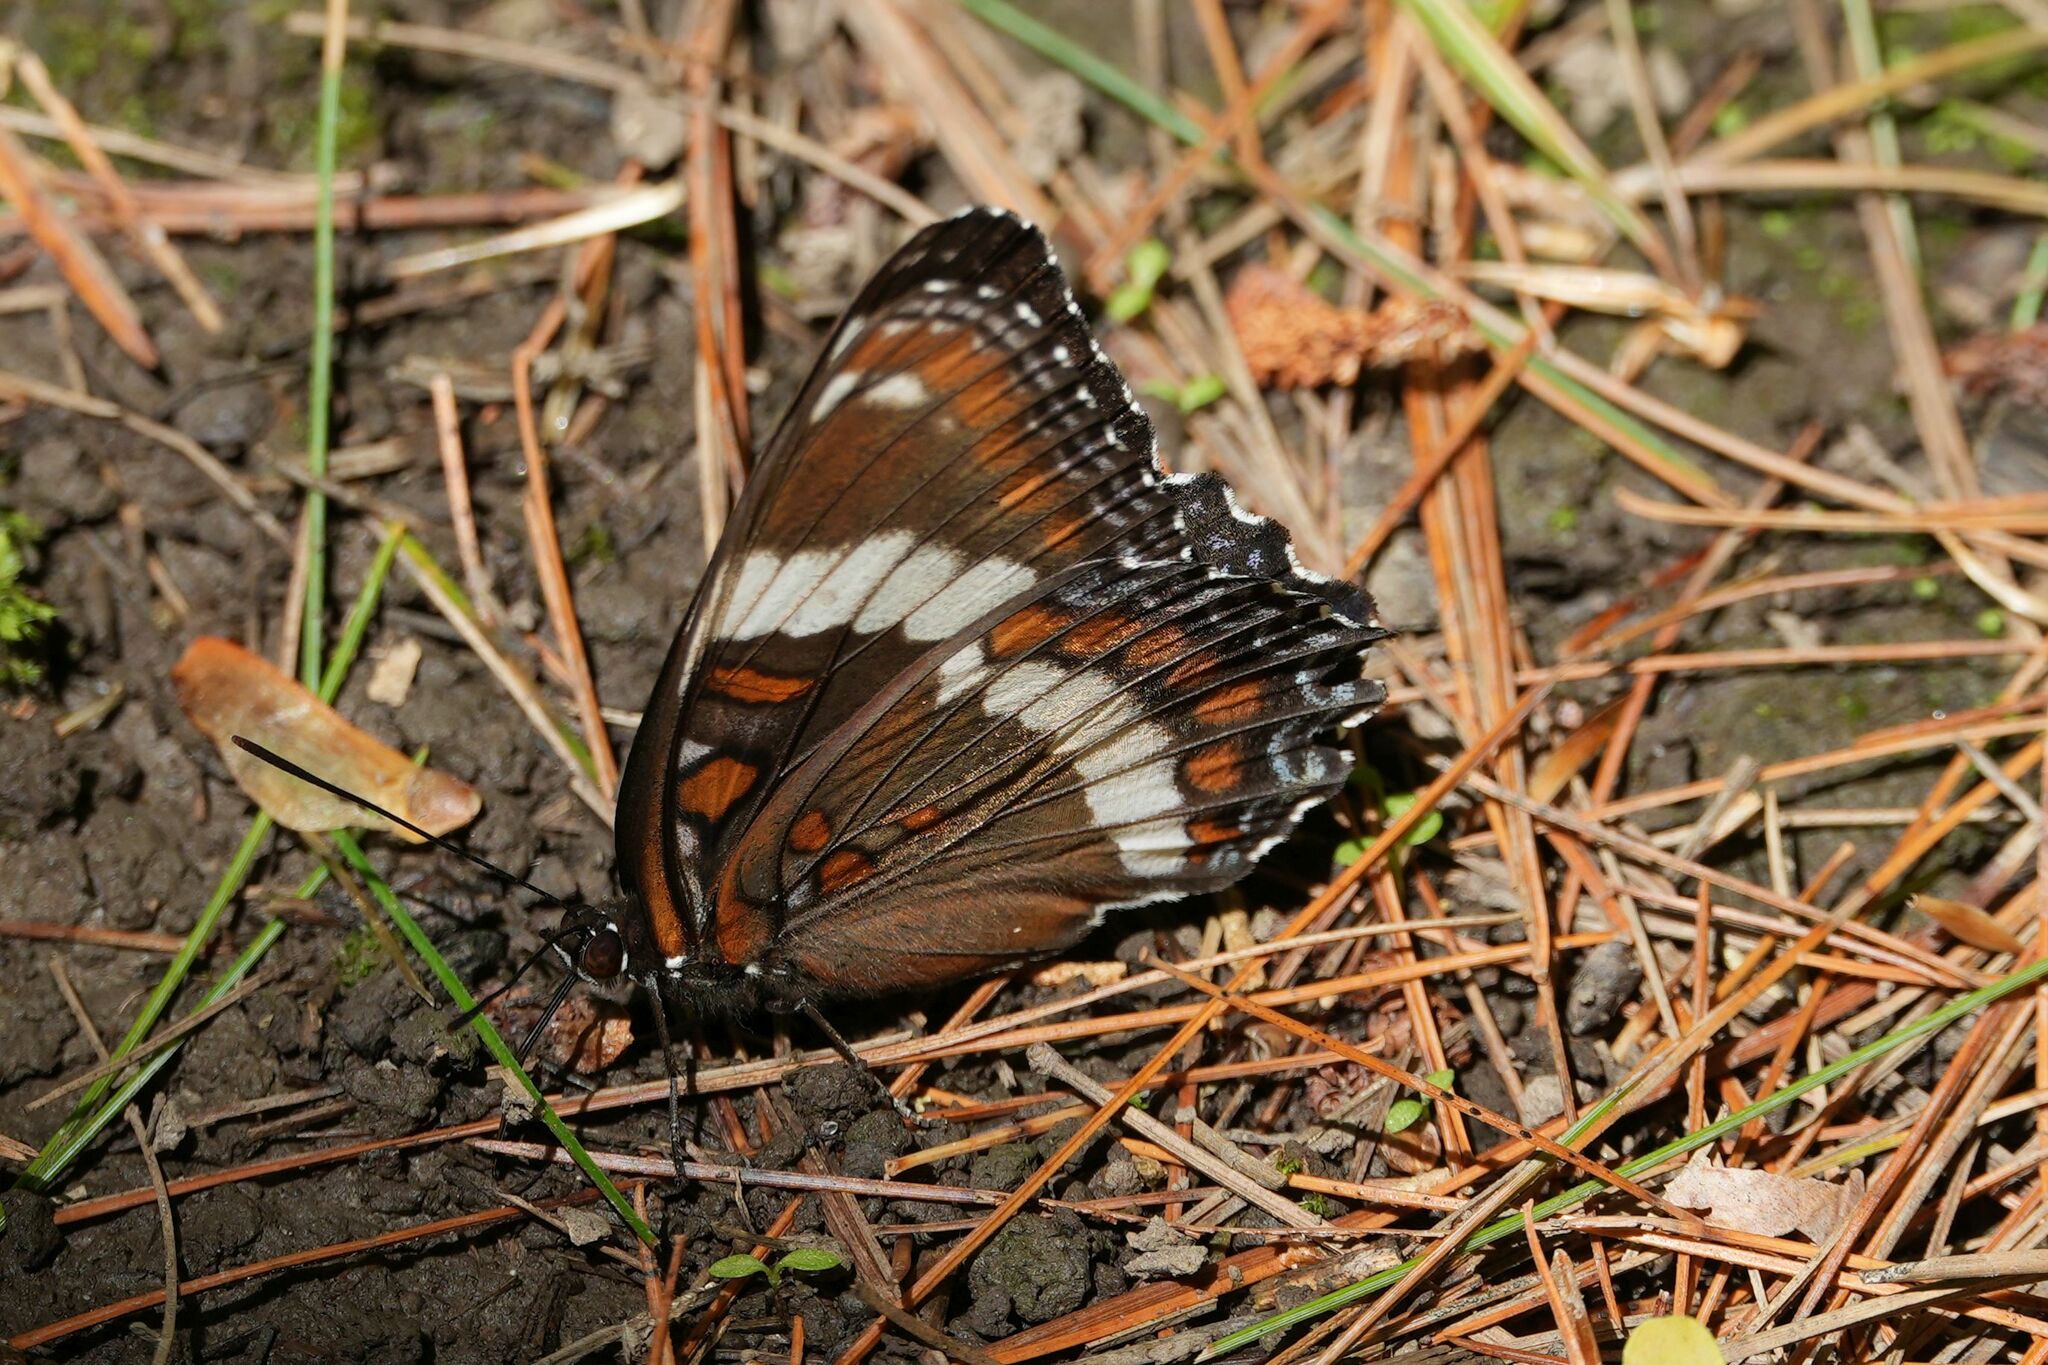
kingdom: Animalia
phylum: Arthropoda
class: Insecta
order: Lepidoptera
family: Nymphalidae
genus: Limenitis
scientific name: Limenitis arthemis
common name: Red-spotted admiral
